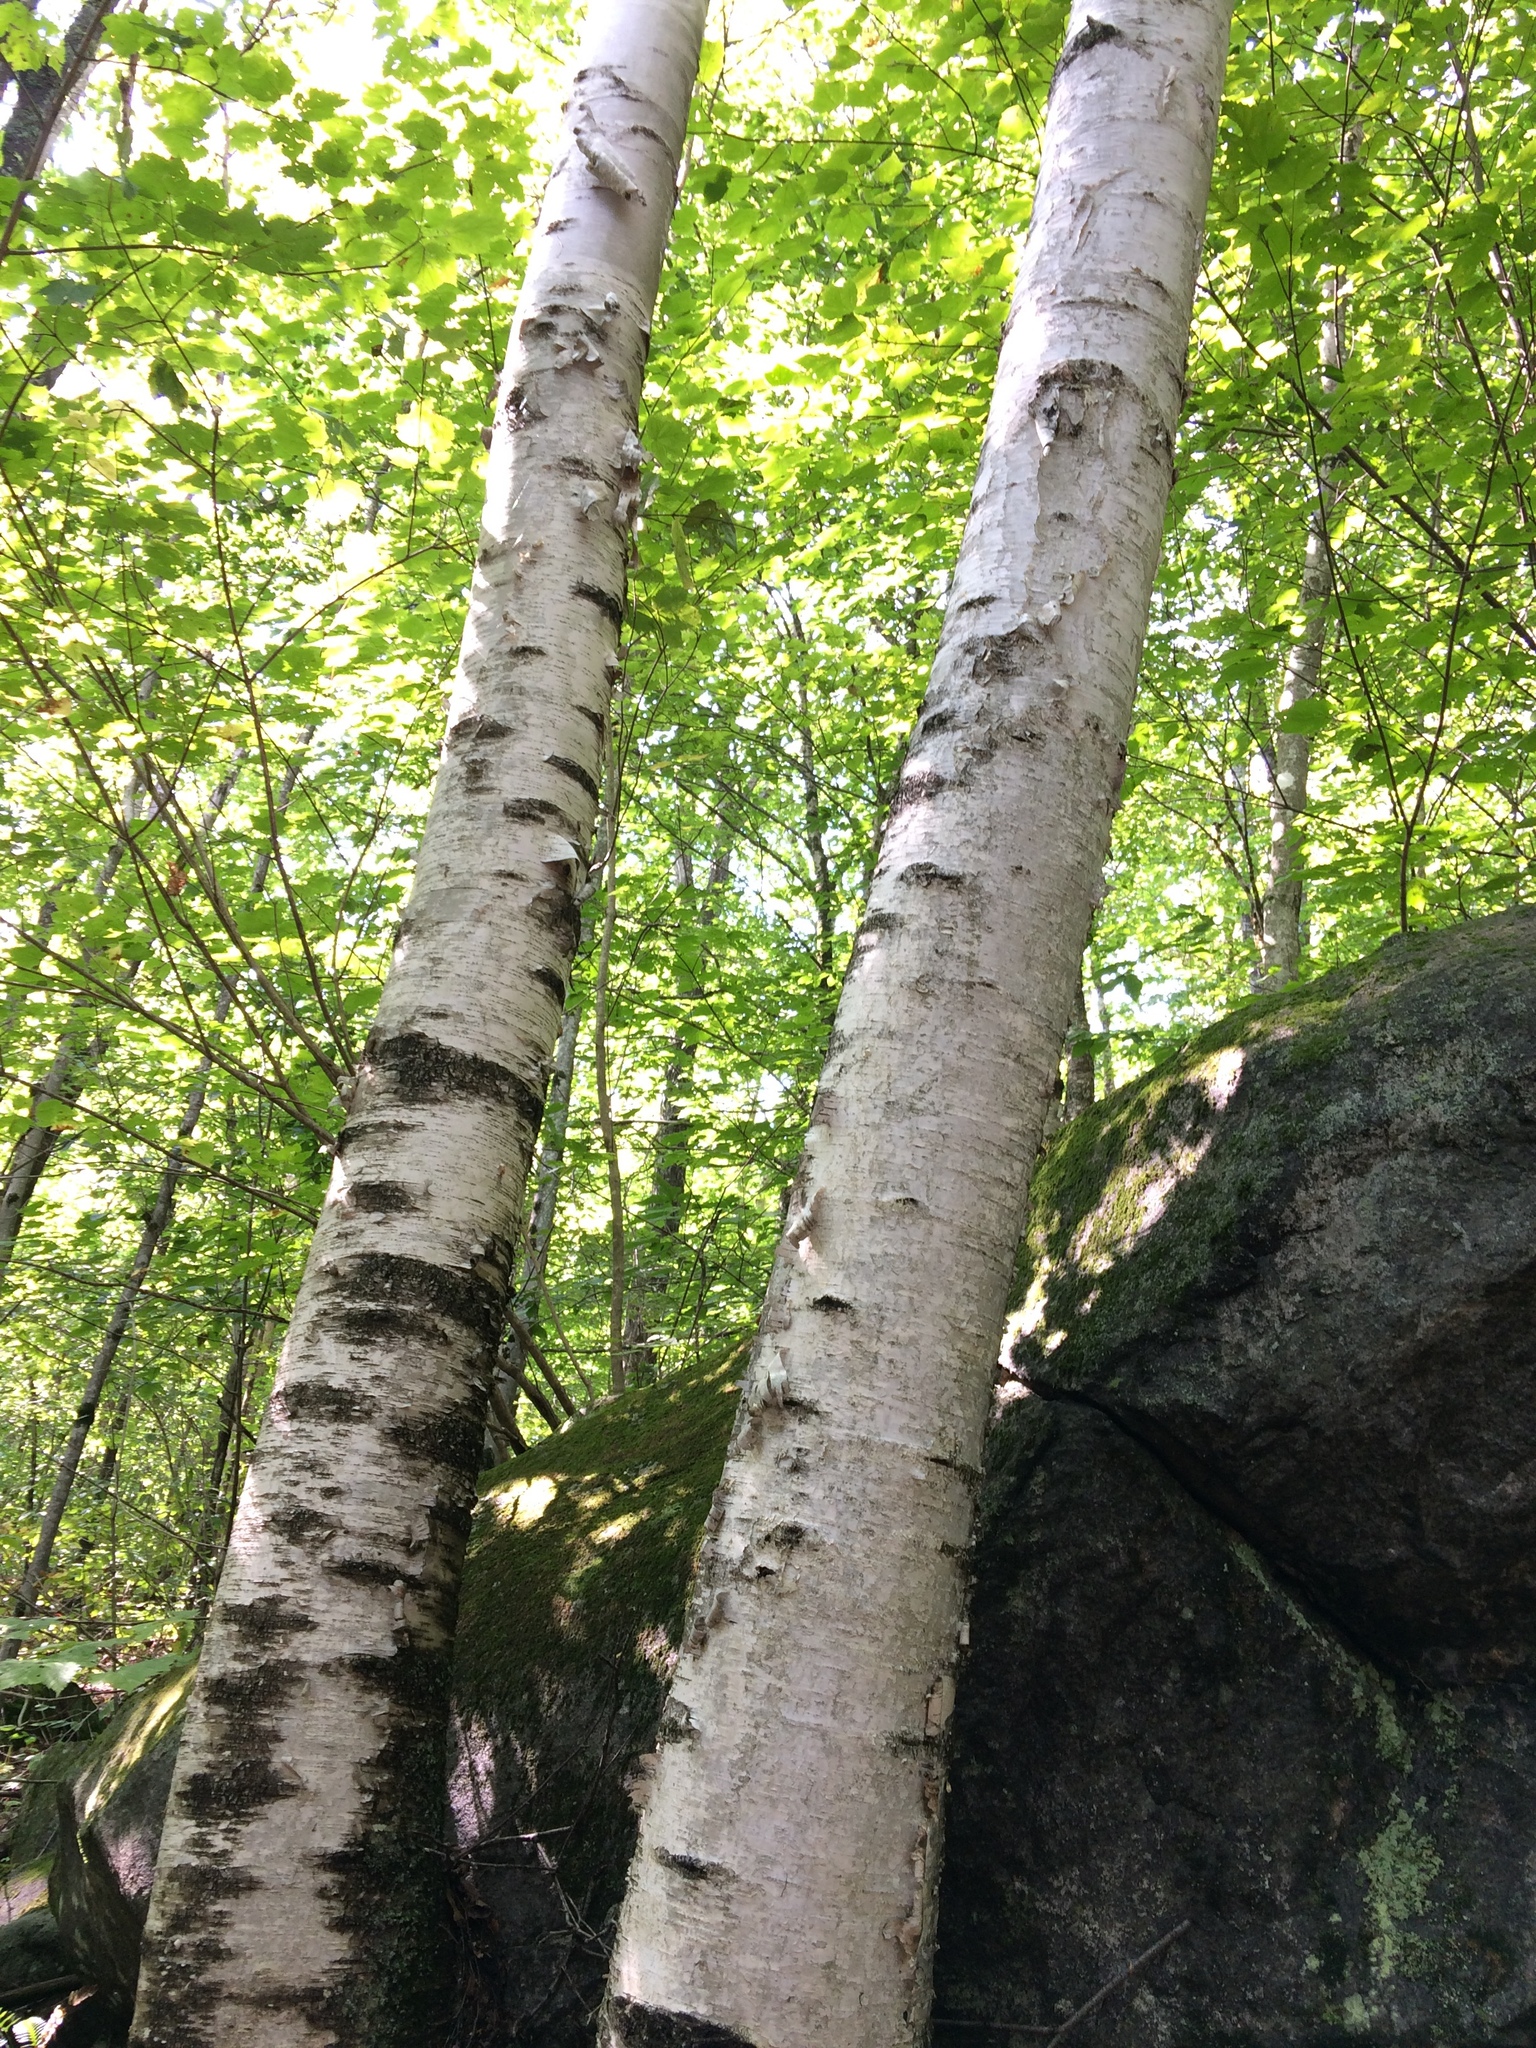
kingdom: Plantae
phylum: Tracheophyta
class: Magnoliopsida
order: Fagales
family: Betulaceae
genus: Betula
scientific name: Betula papyrifera
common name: Paper birch
